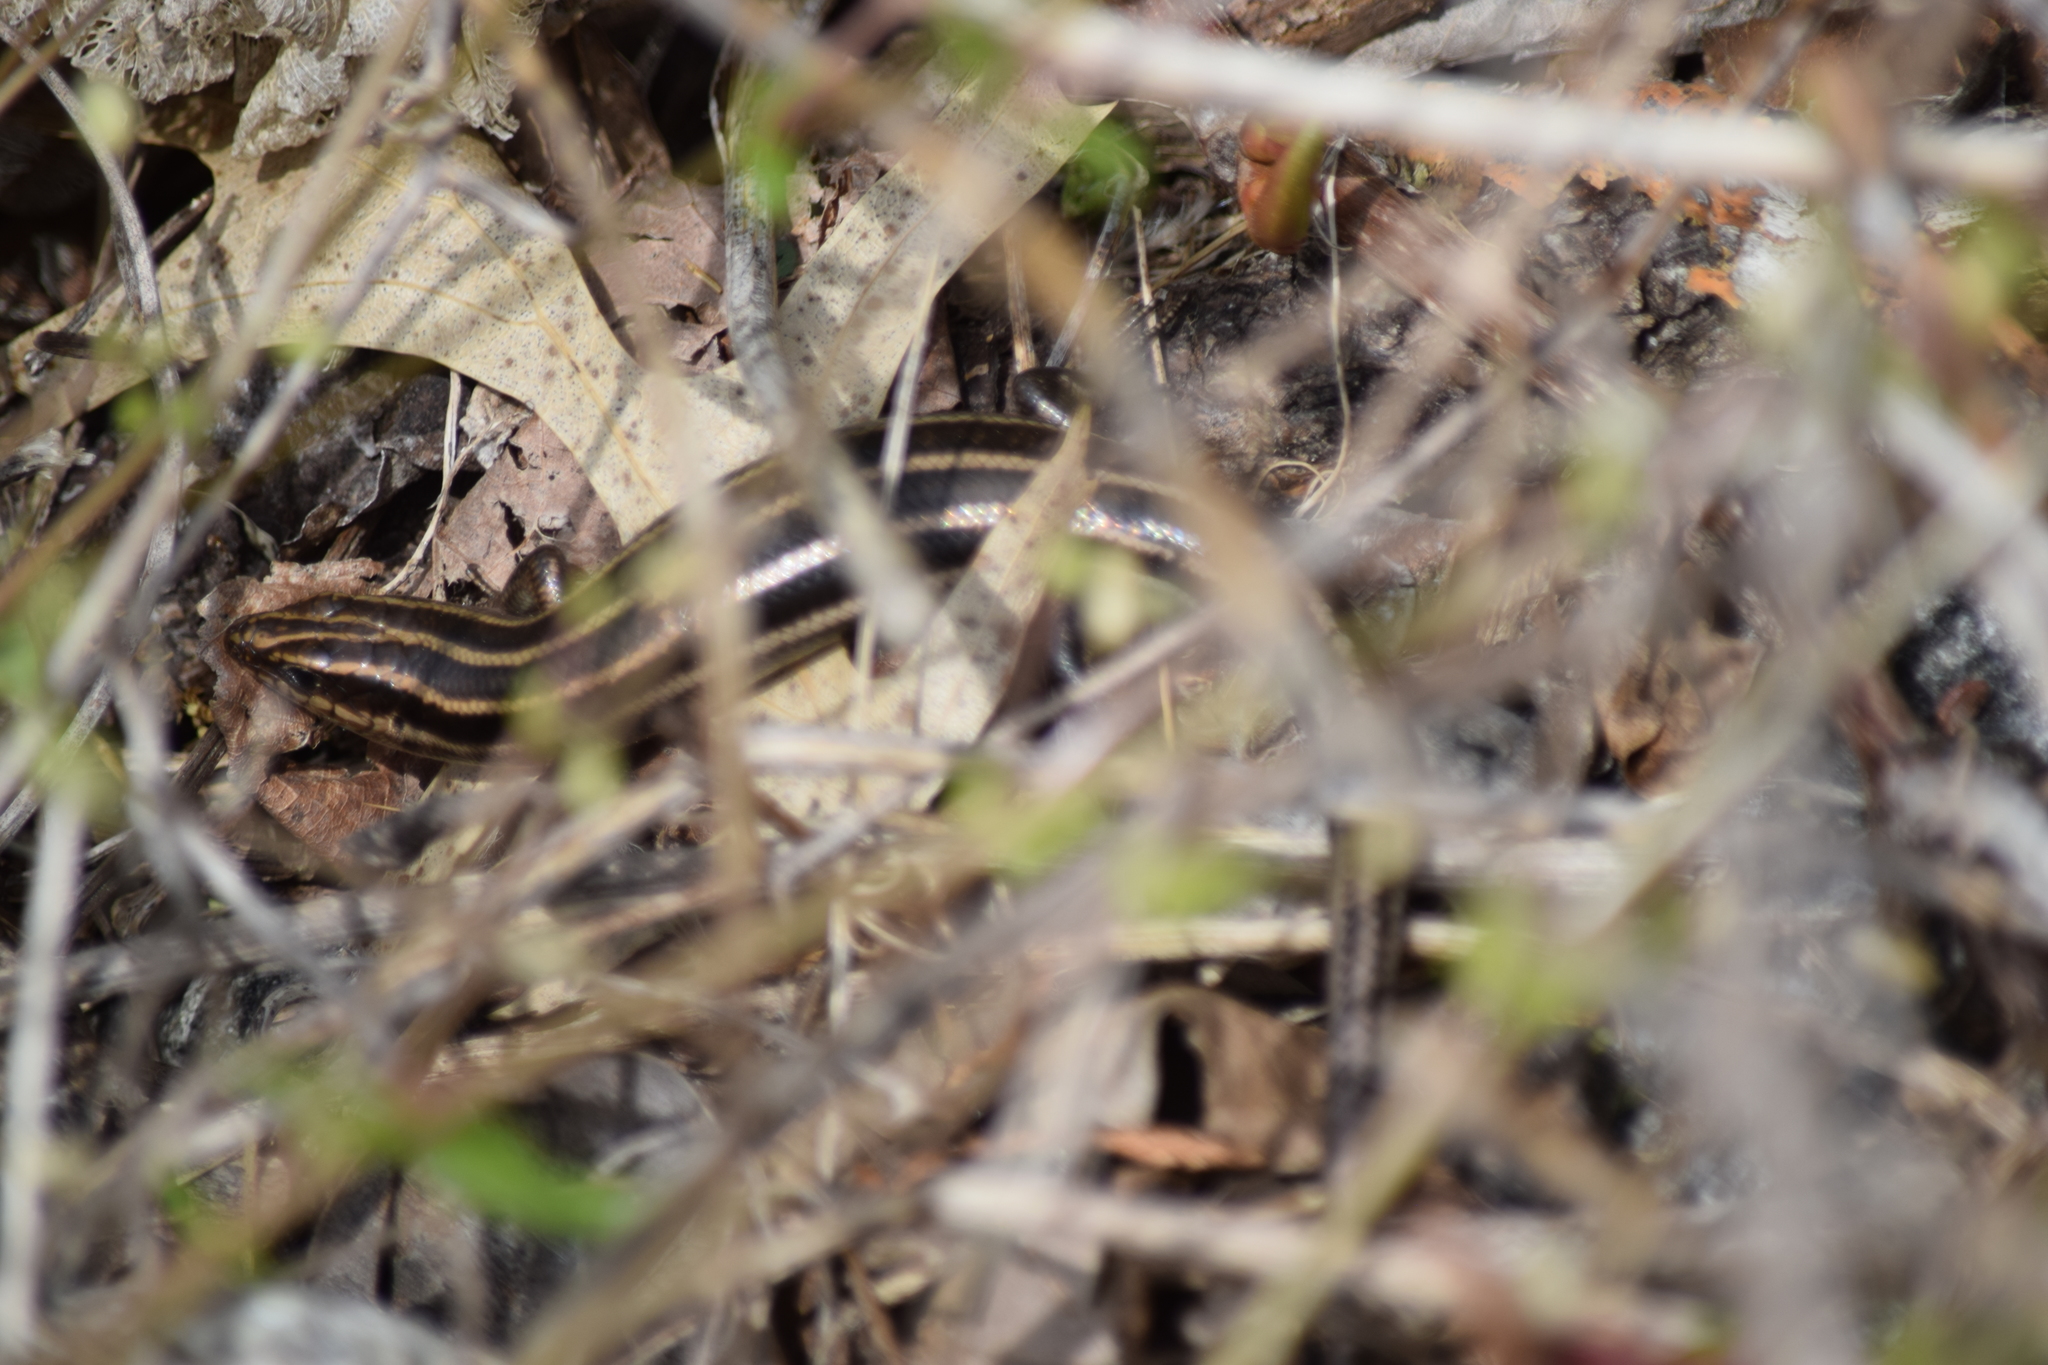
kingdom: Animalia
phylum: Chordata
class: Squamata
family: Scincidae
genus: Plestiodon
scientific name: Plestiodon fasciatus
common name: Five-lined skink
